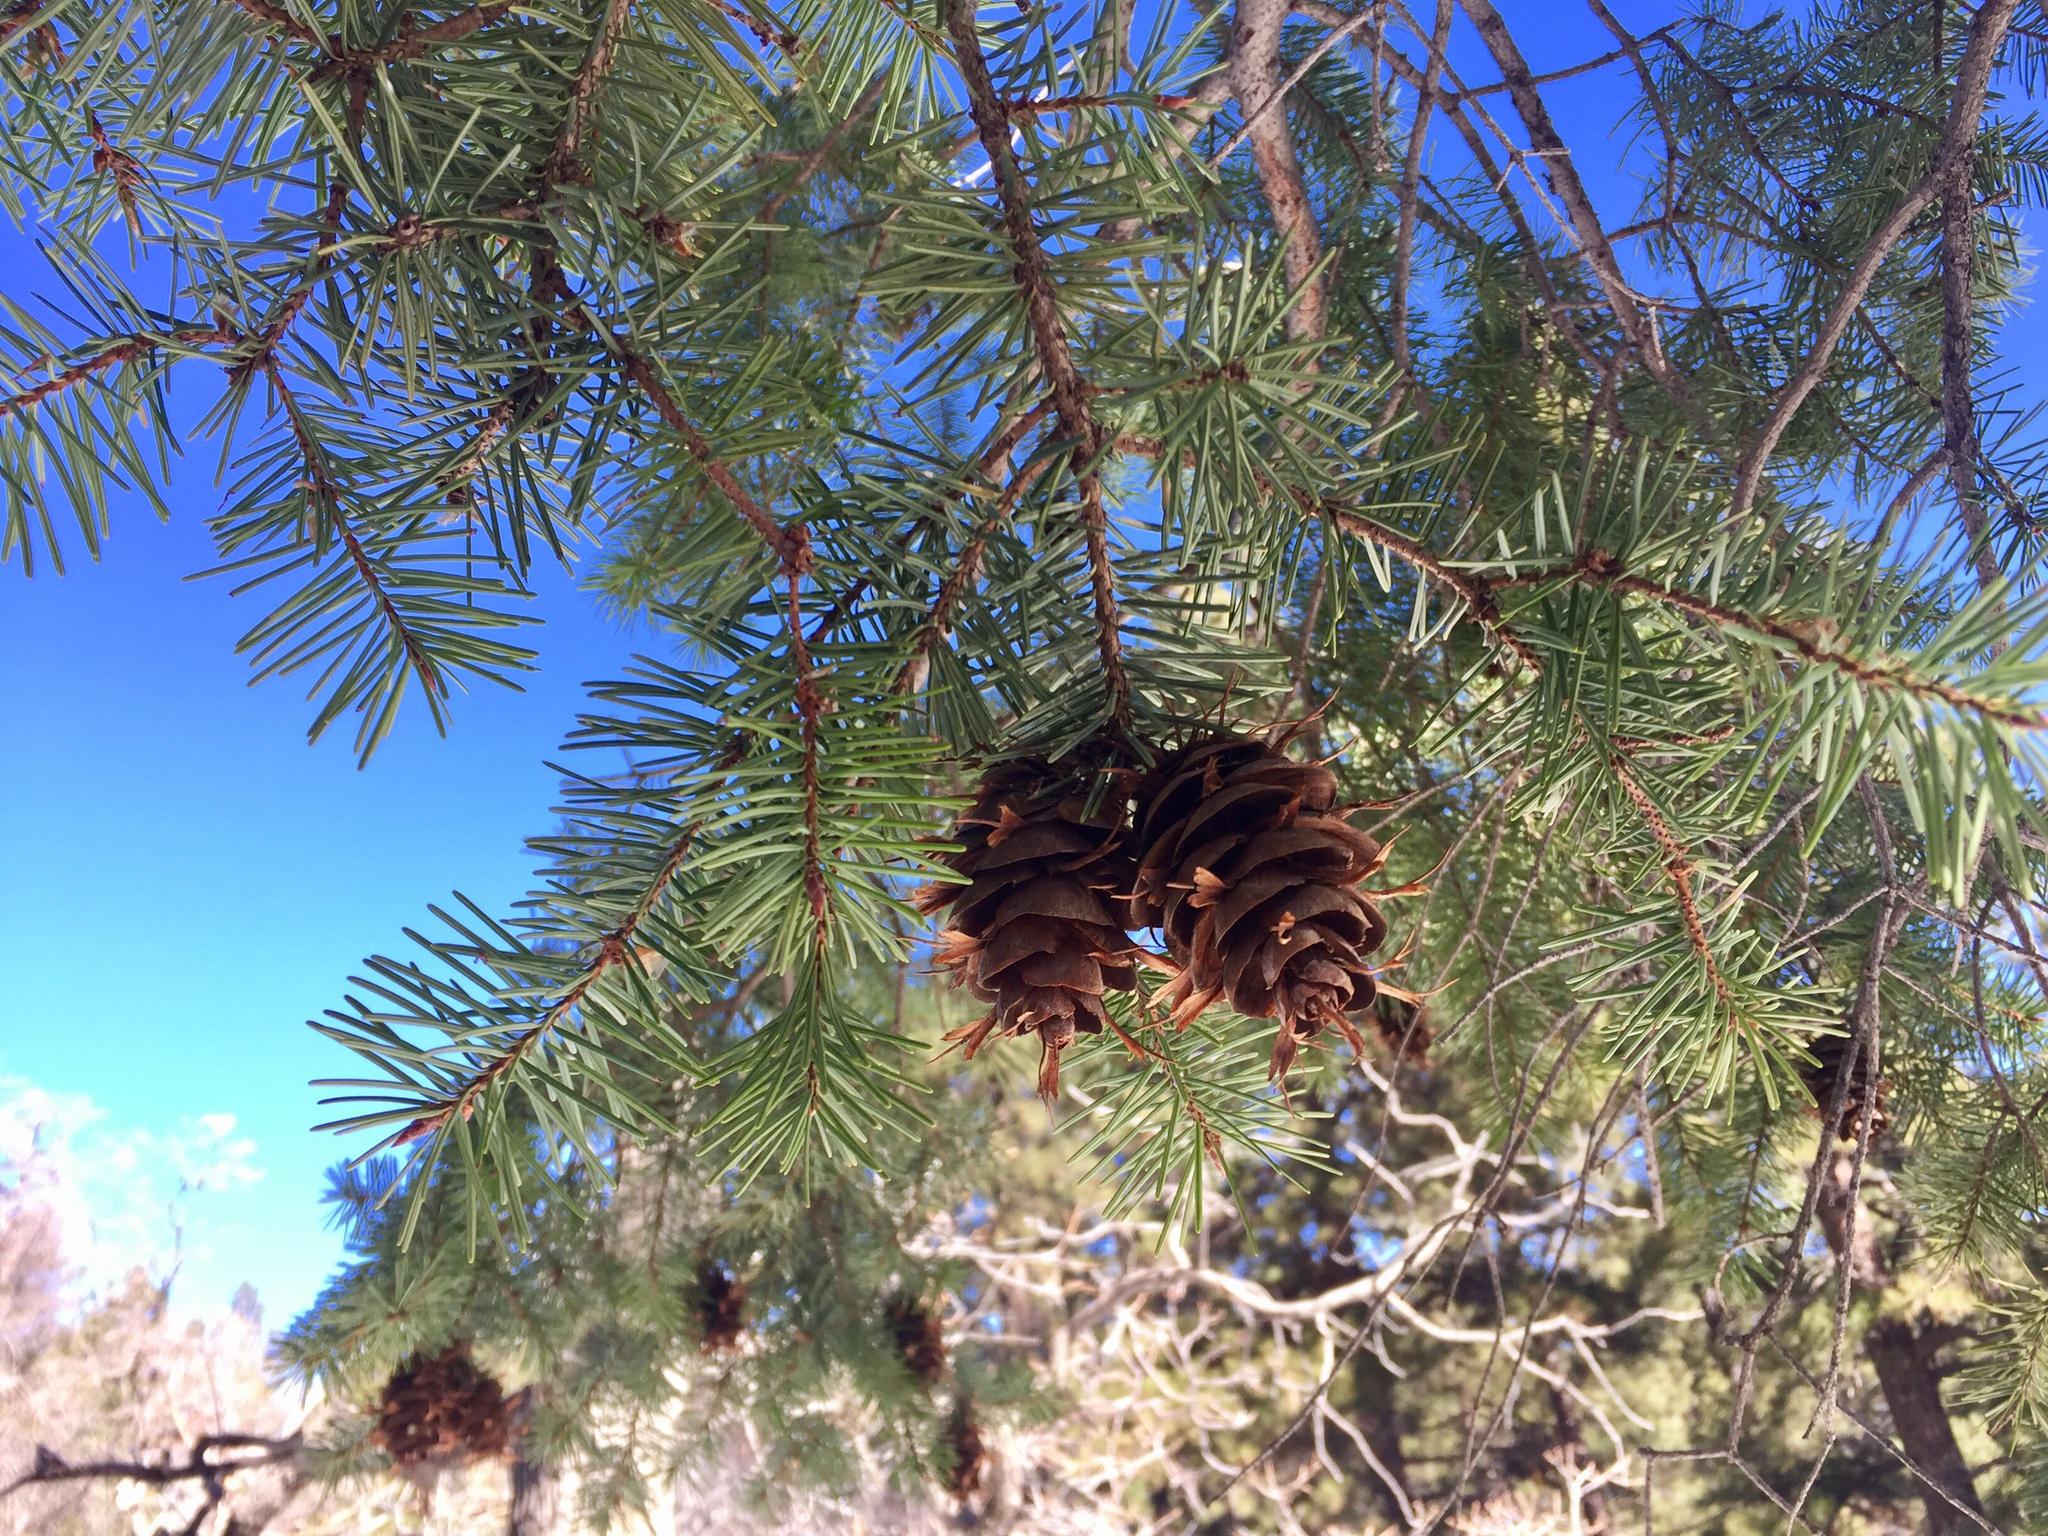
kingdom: Plantae
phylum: Tracheophyta
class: Pinopsida
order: Pinales
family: Pinaceae
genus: Pseudotsuga
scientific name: Pseudotsuga menziesii
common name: Douglas fir
